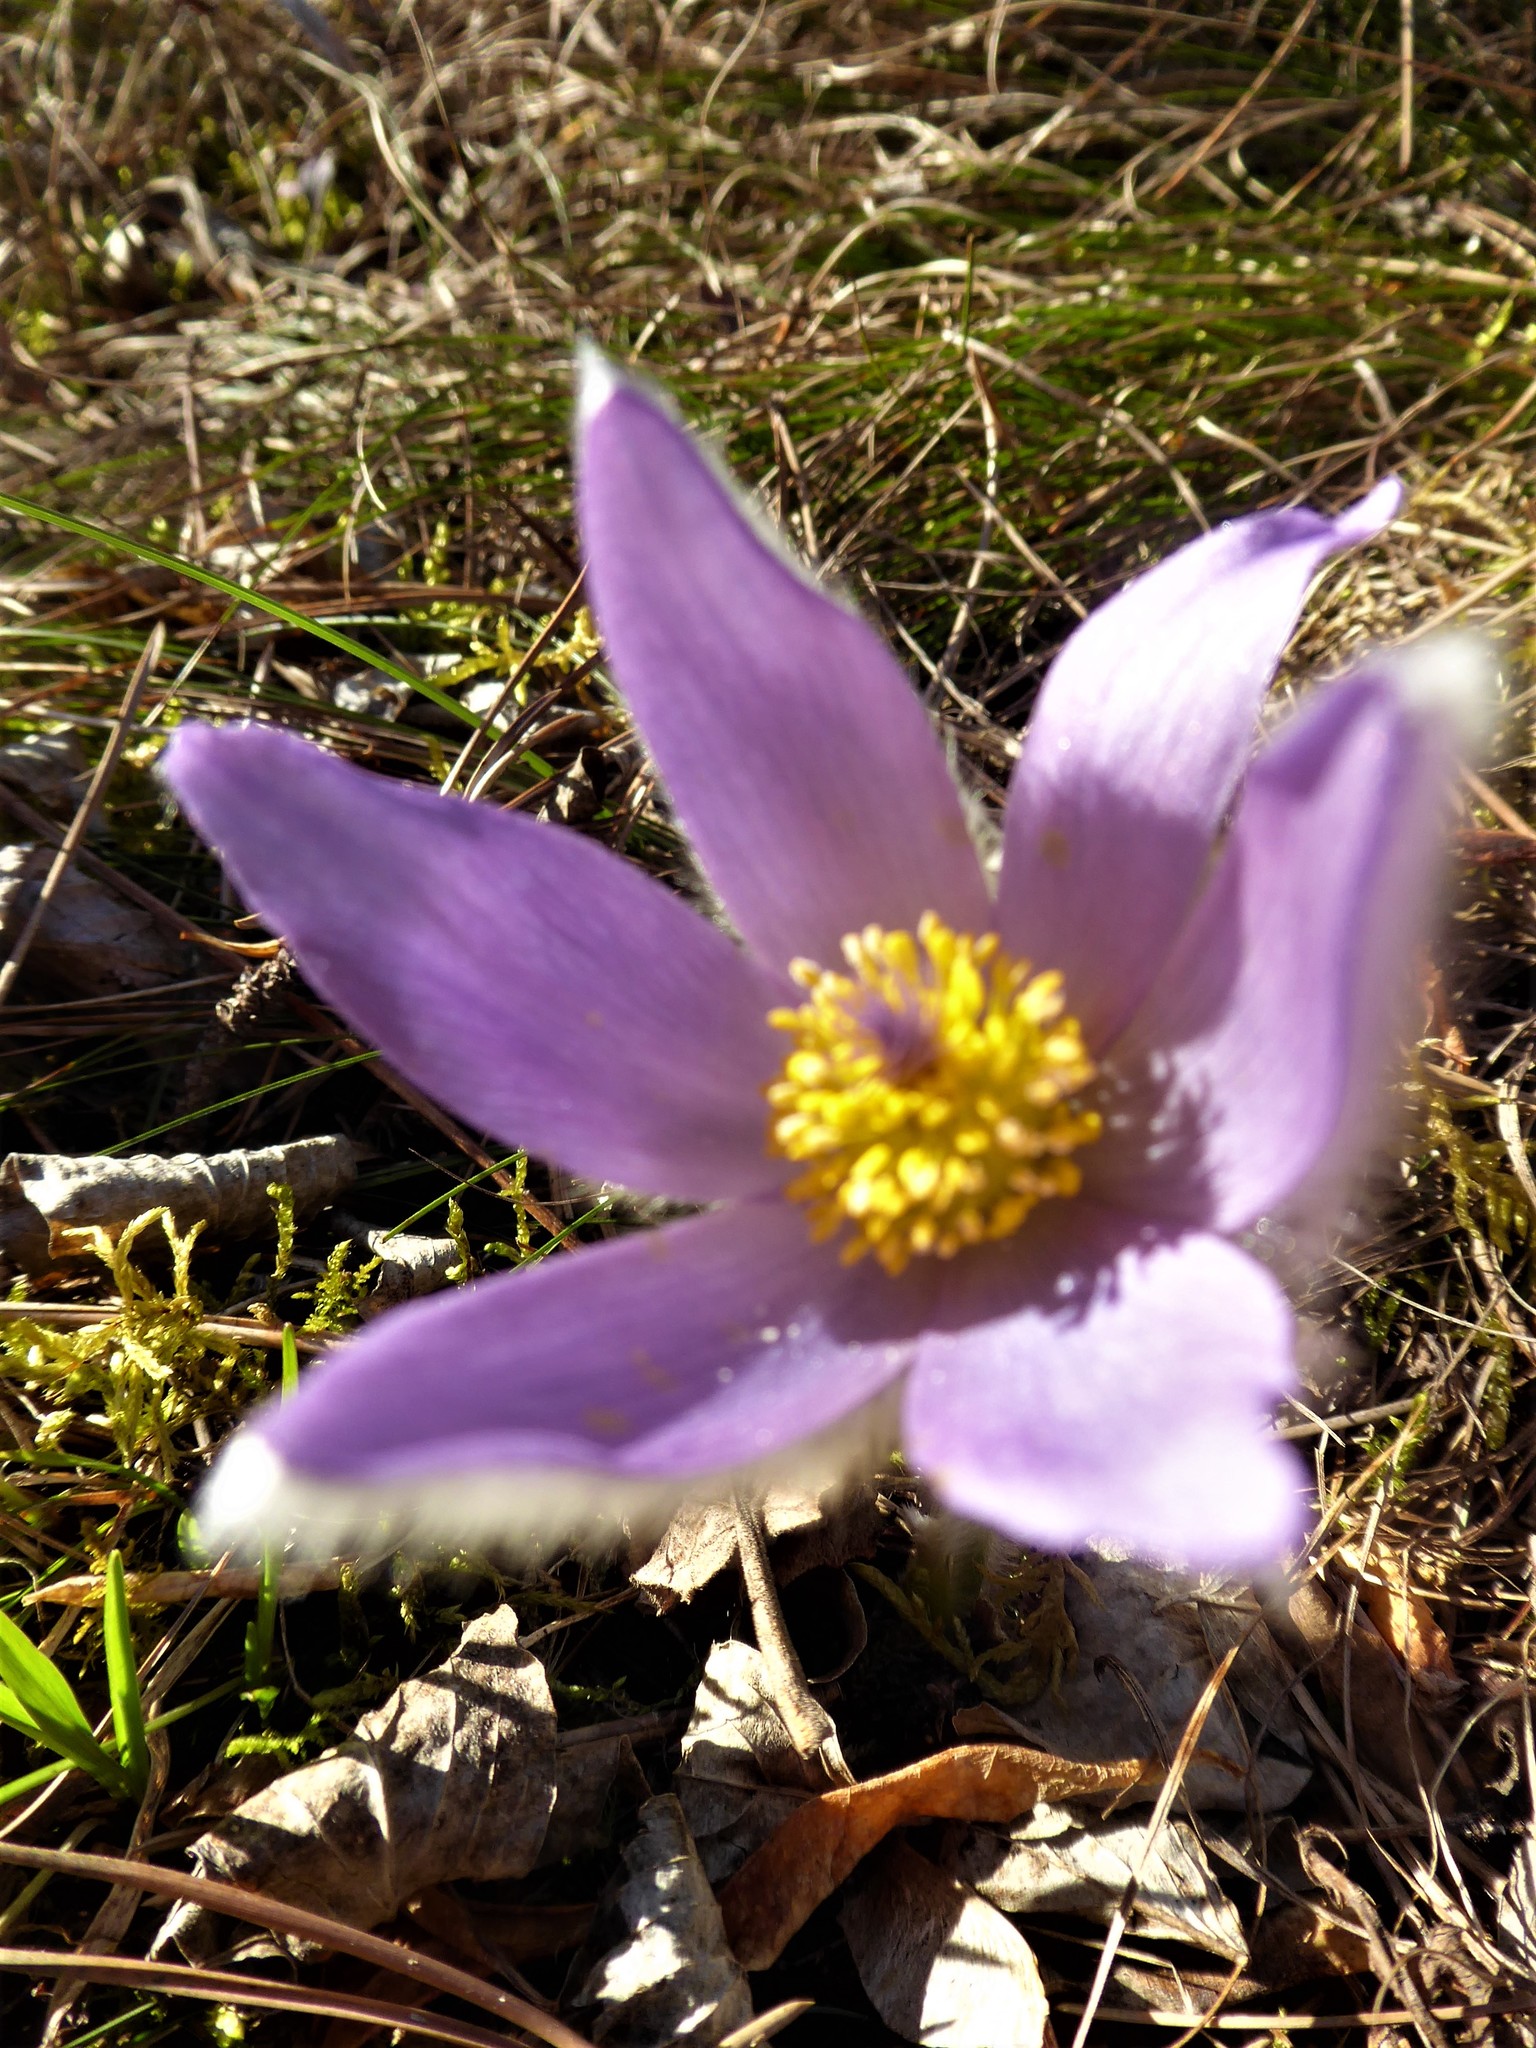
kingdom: Plantae
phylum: Tracheophyta
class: Magnoliopsida
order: Ranunculales
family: Ranunculaceae
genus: Pulsatilla
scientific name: Pulsatilla grandis
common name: Greater pasque flower
